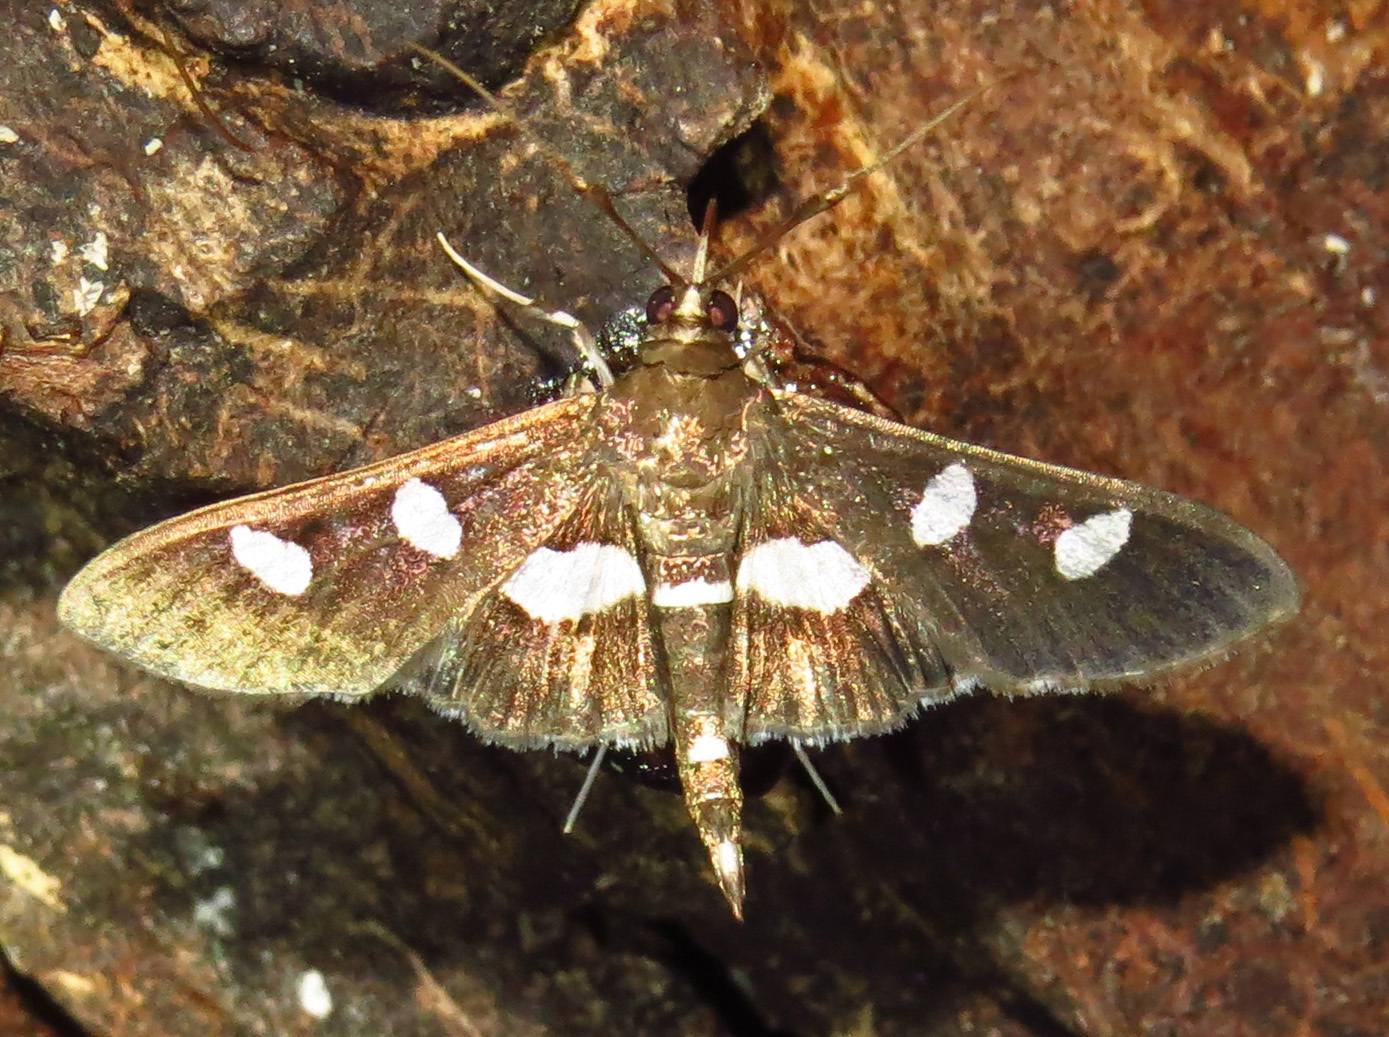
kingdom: Animalia
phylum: Arthropoda
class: Insecta
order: Lepidoptera
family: Crambidae
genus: Desmia
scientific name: Desmia
